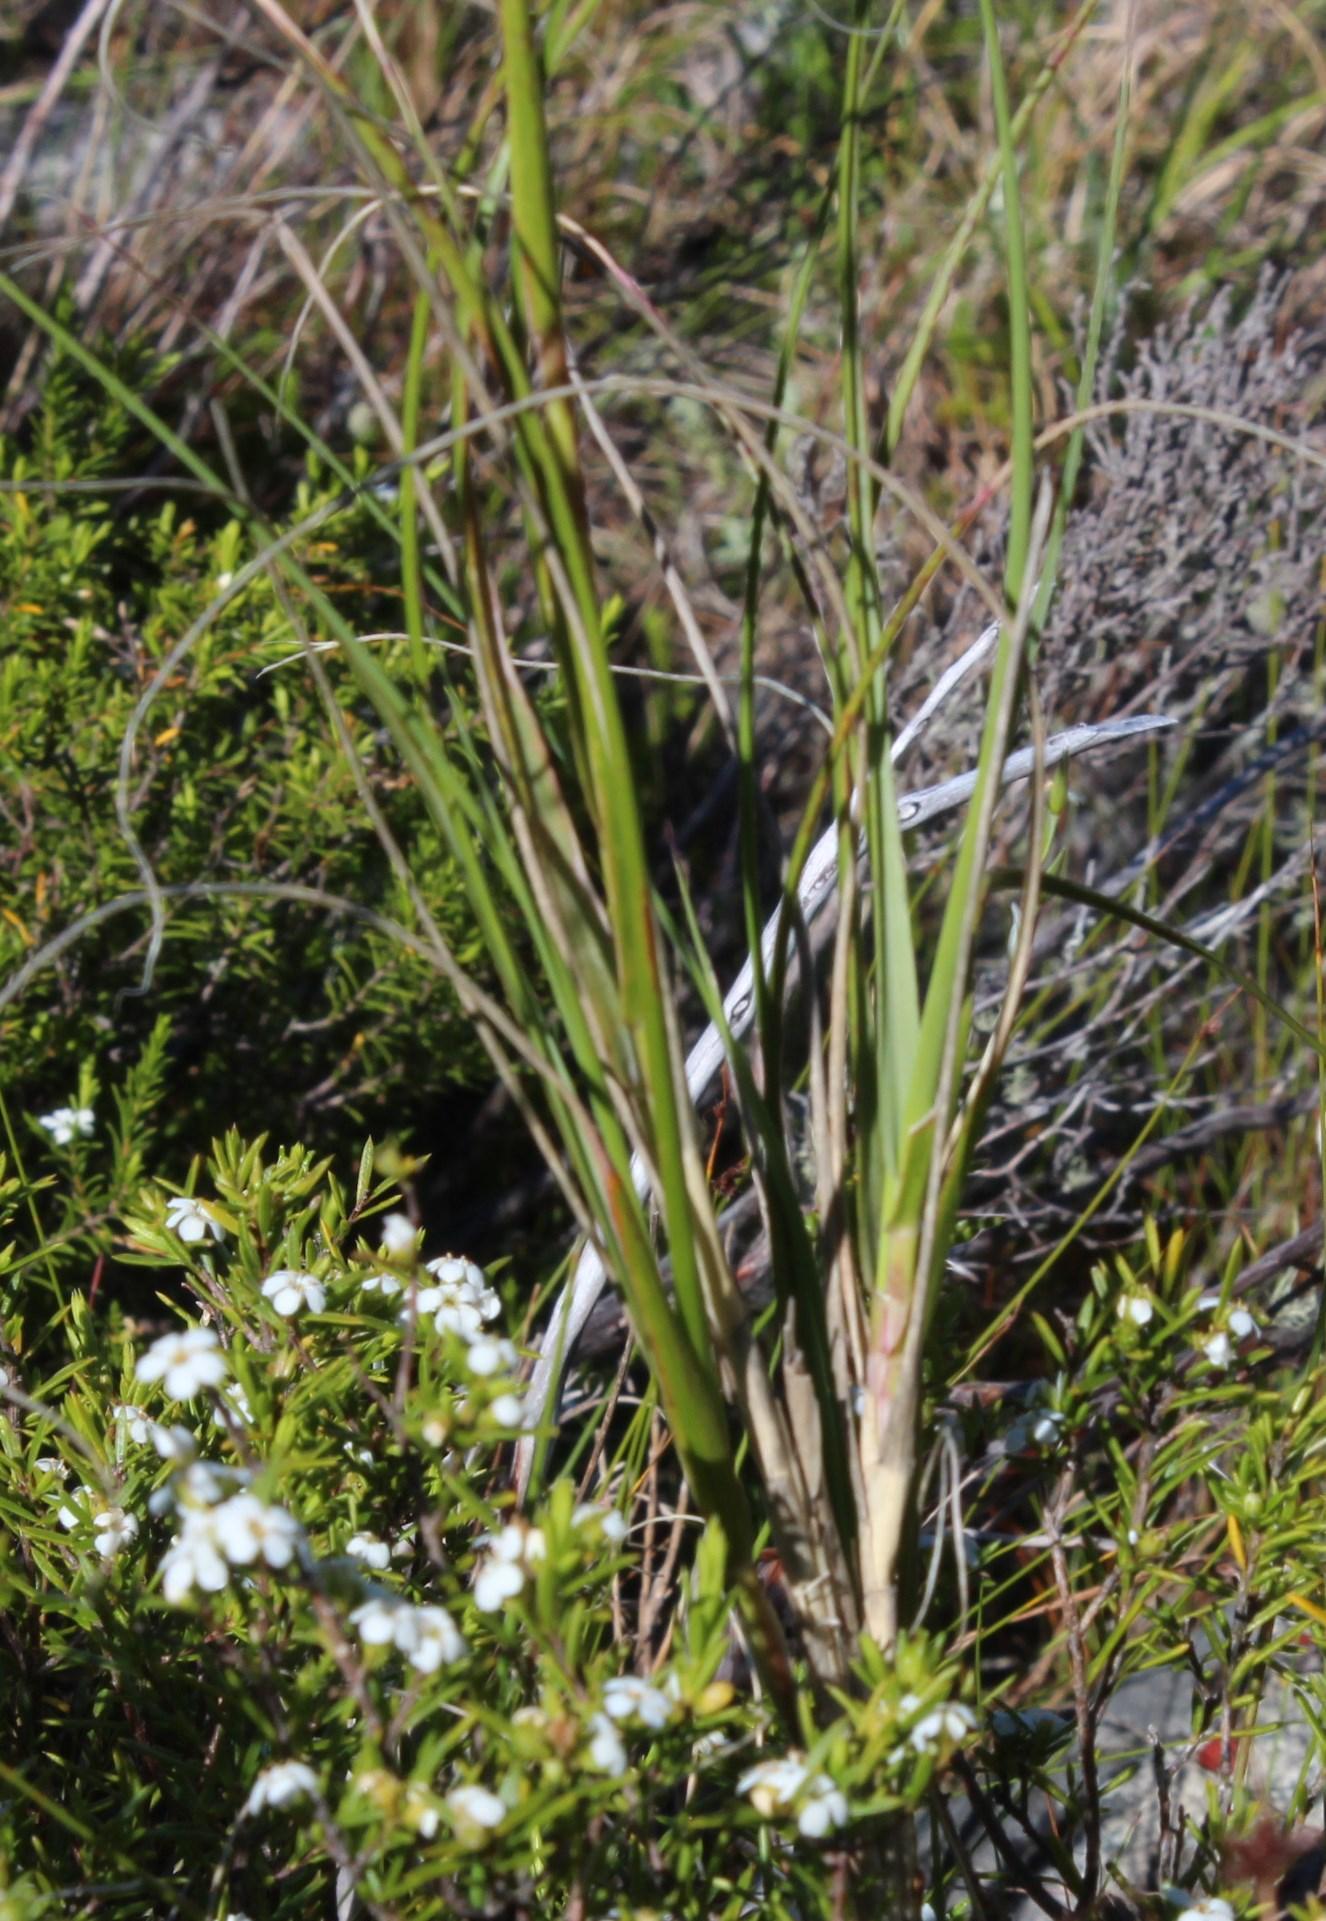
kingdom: Plantae
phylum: Tracheophyta
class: Liliopsida
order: Poales
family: Poaceae
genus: Pseudopentameris
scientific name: Pseudopentameris macrantha
